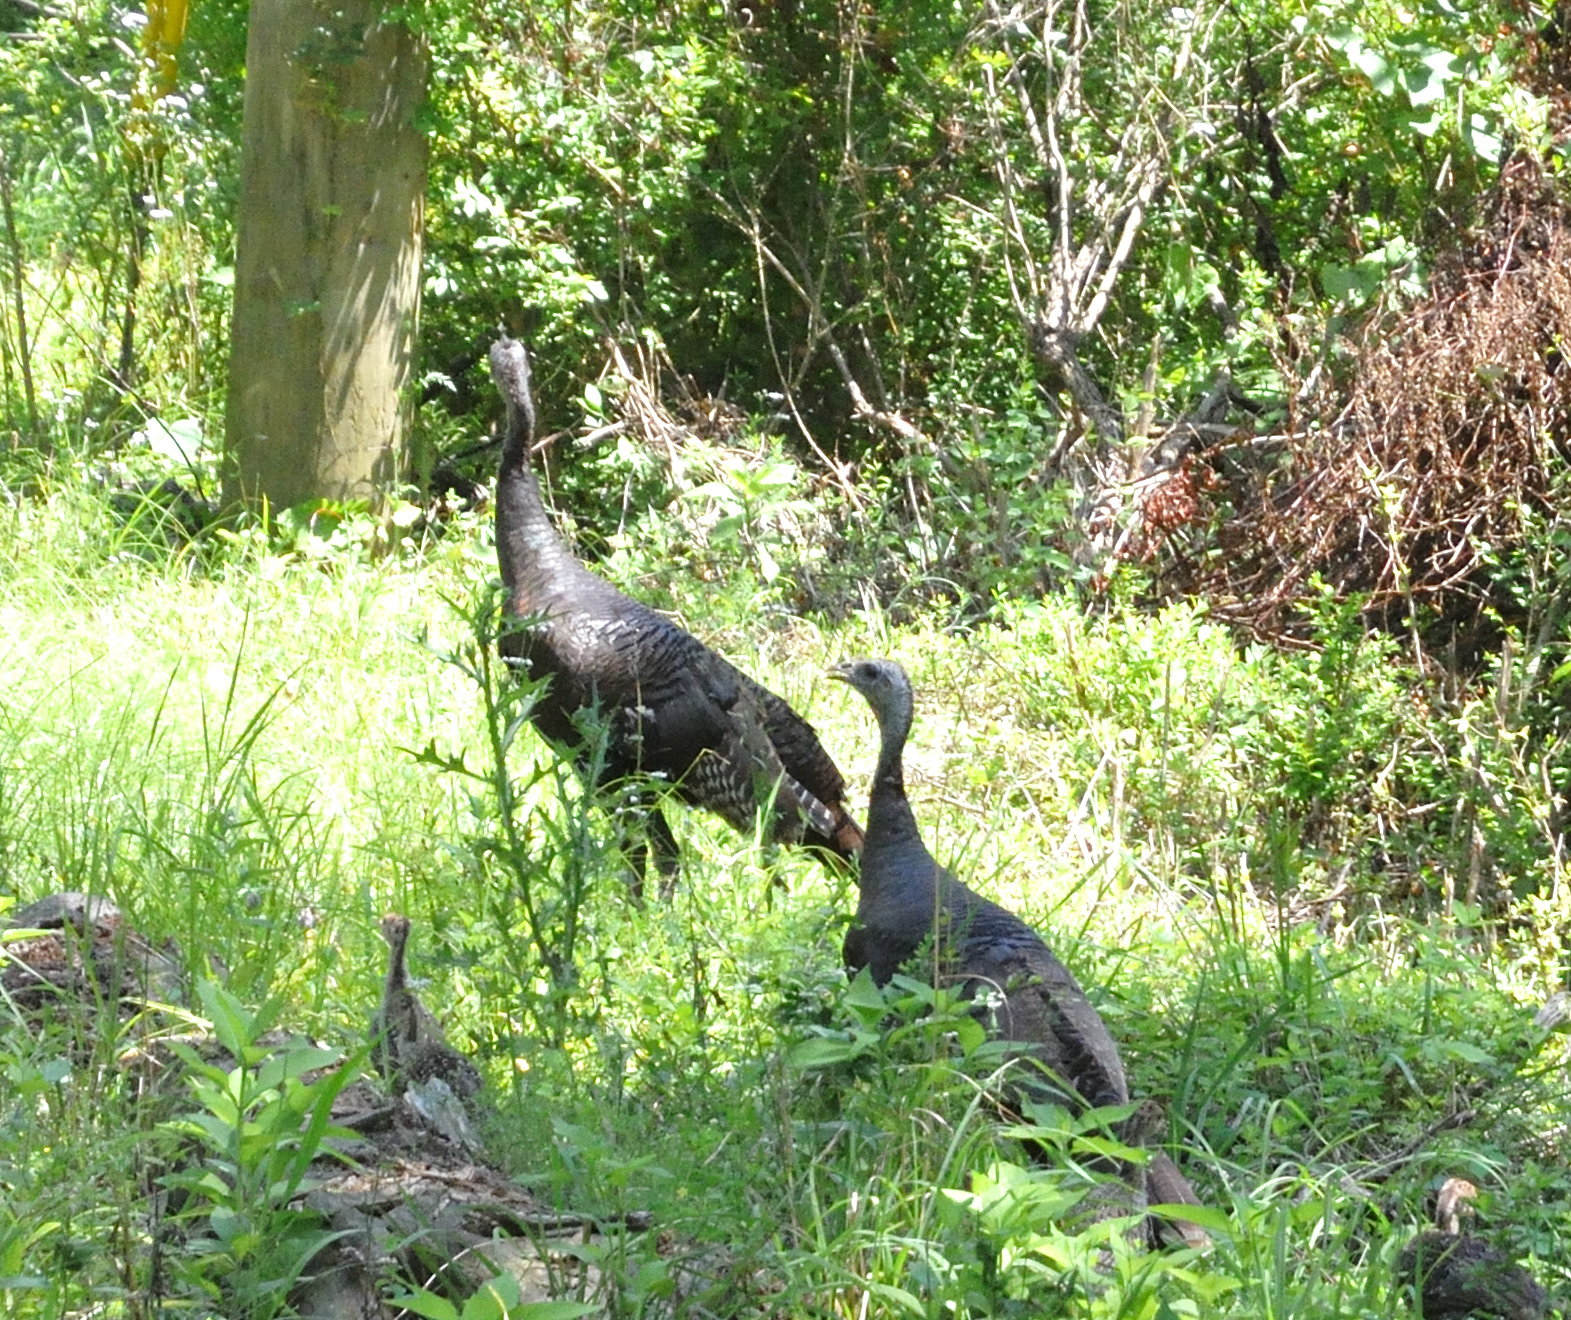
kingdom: Animalia
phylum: Chordata
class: Aves
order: Galliformes
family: Phasianidae
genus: Meleagris
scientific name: Meleagris gallopavo
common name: Wild turkey
